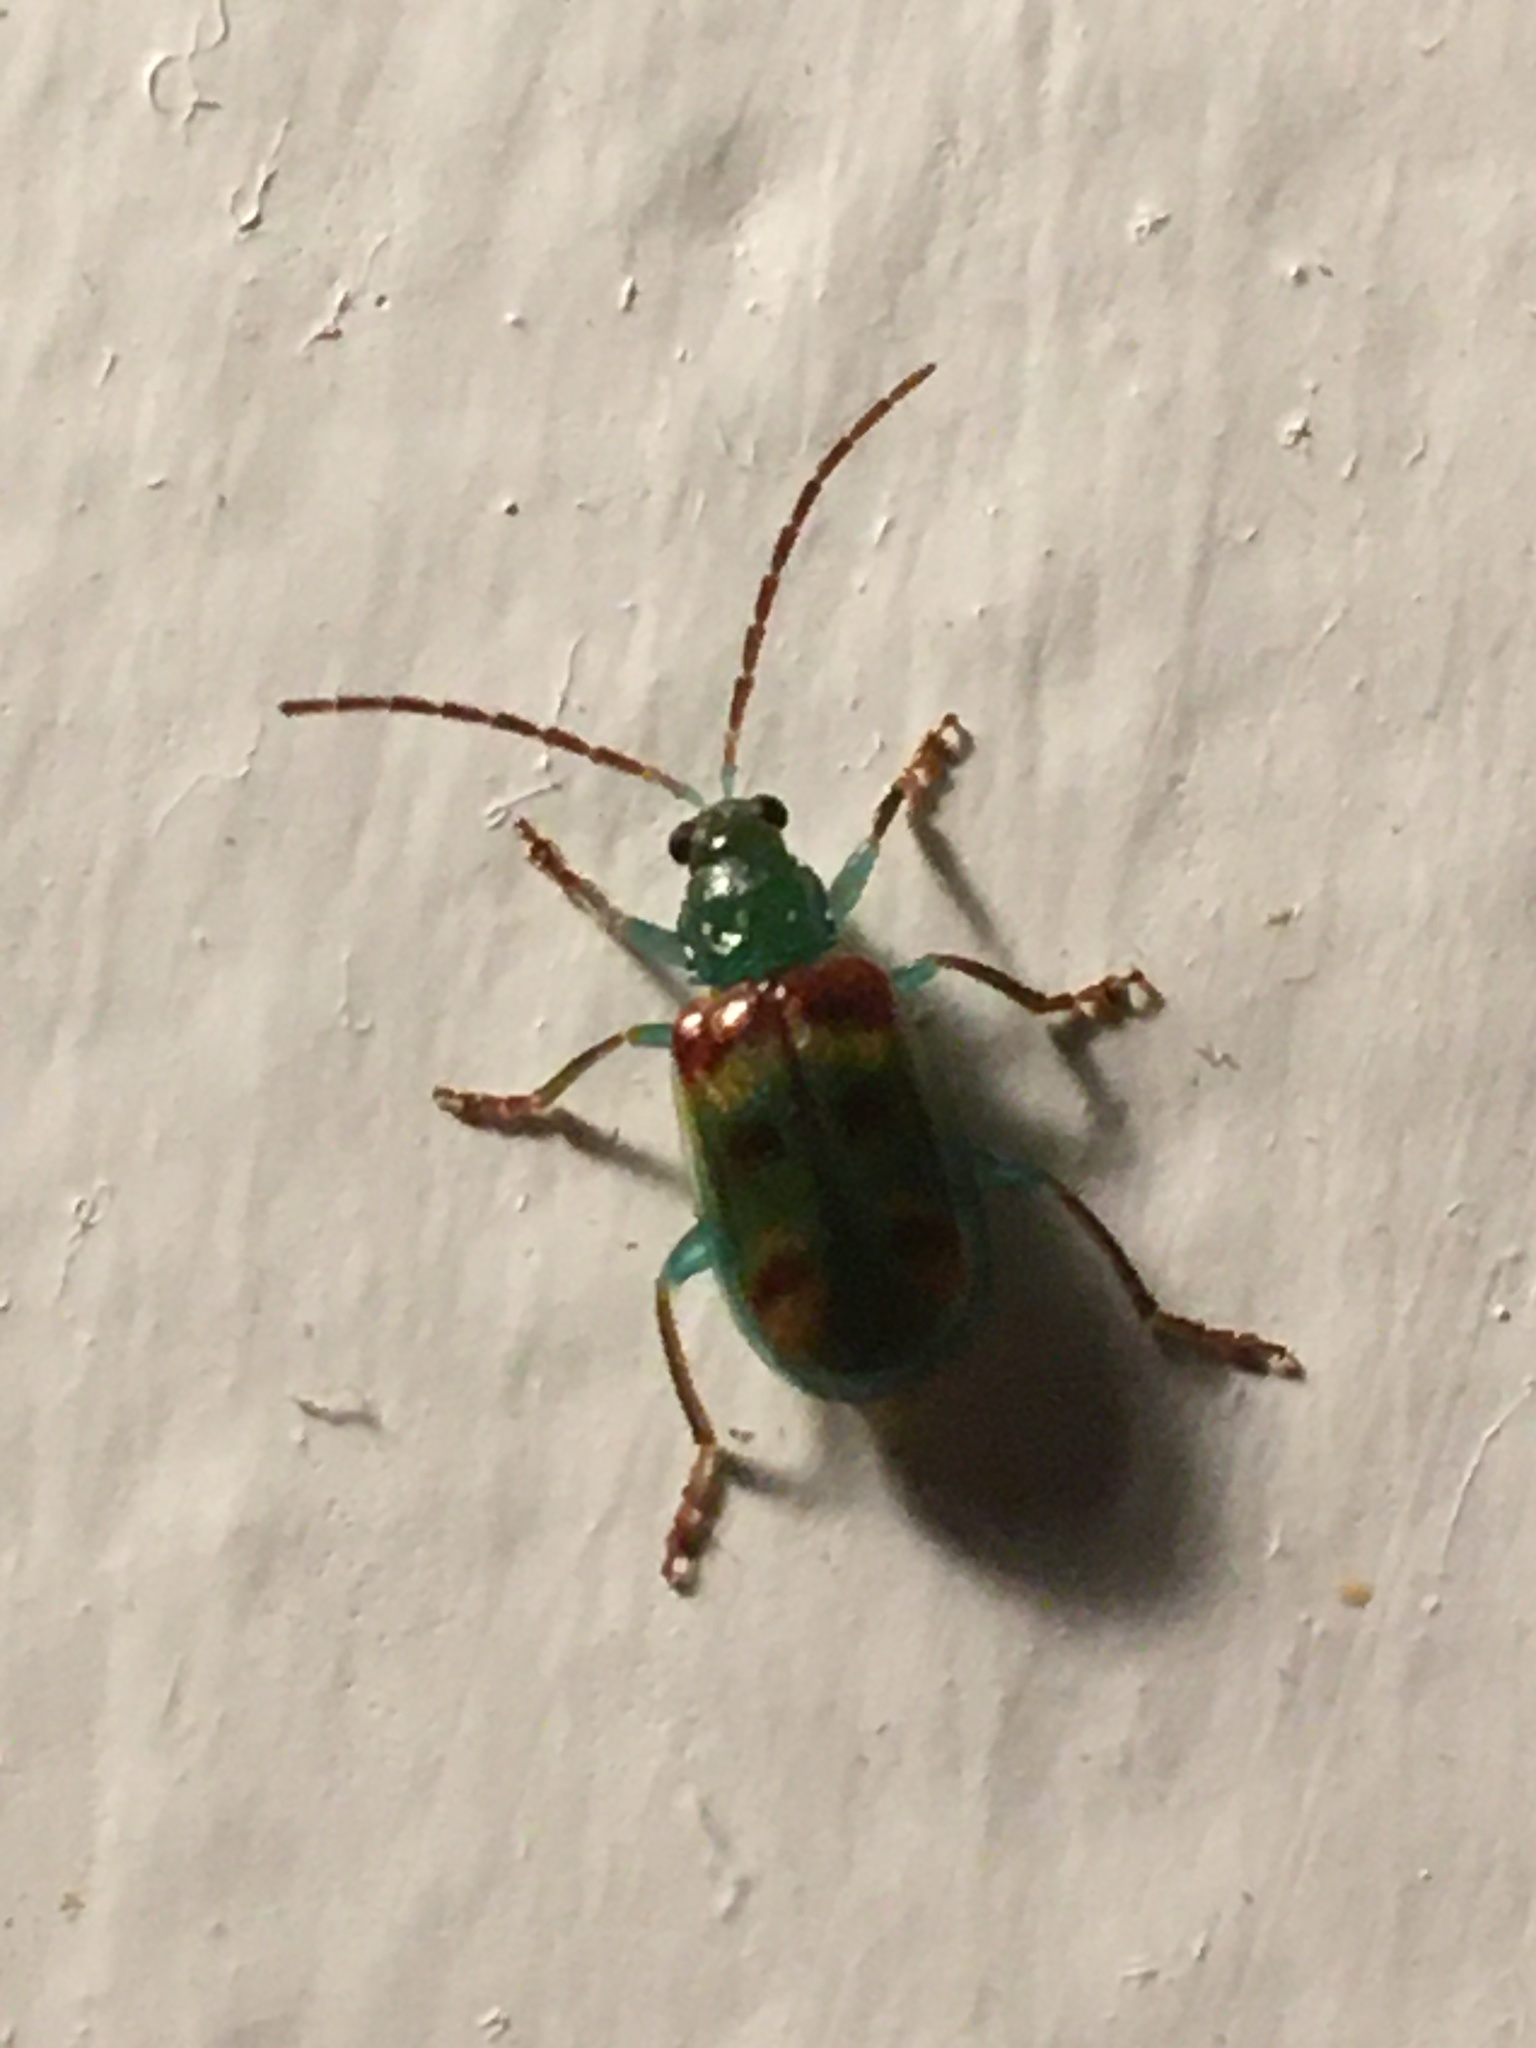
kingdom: Animalia
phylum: Arthropoda
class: Insecta
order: Coleoptera
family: Chrysomelidae
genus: Diabrotica
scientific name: Diabrotica viridula
